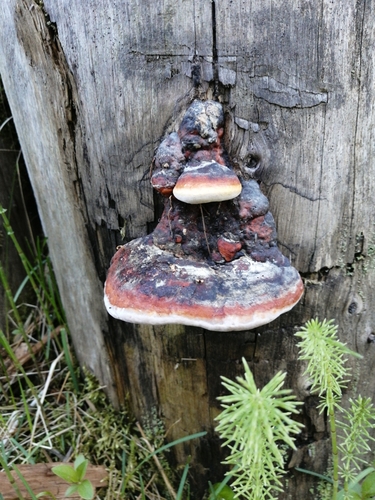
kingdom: Fungi
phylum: Basidiomycota
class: Agaricomycetes
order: Polyporales
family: Fomitopsidaceae
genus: Fomitopsis
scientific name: Fomitopsis pinicola
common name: Red-belted bracket
